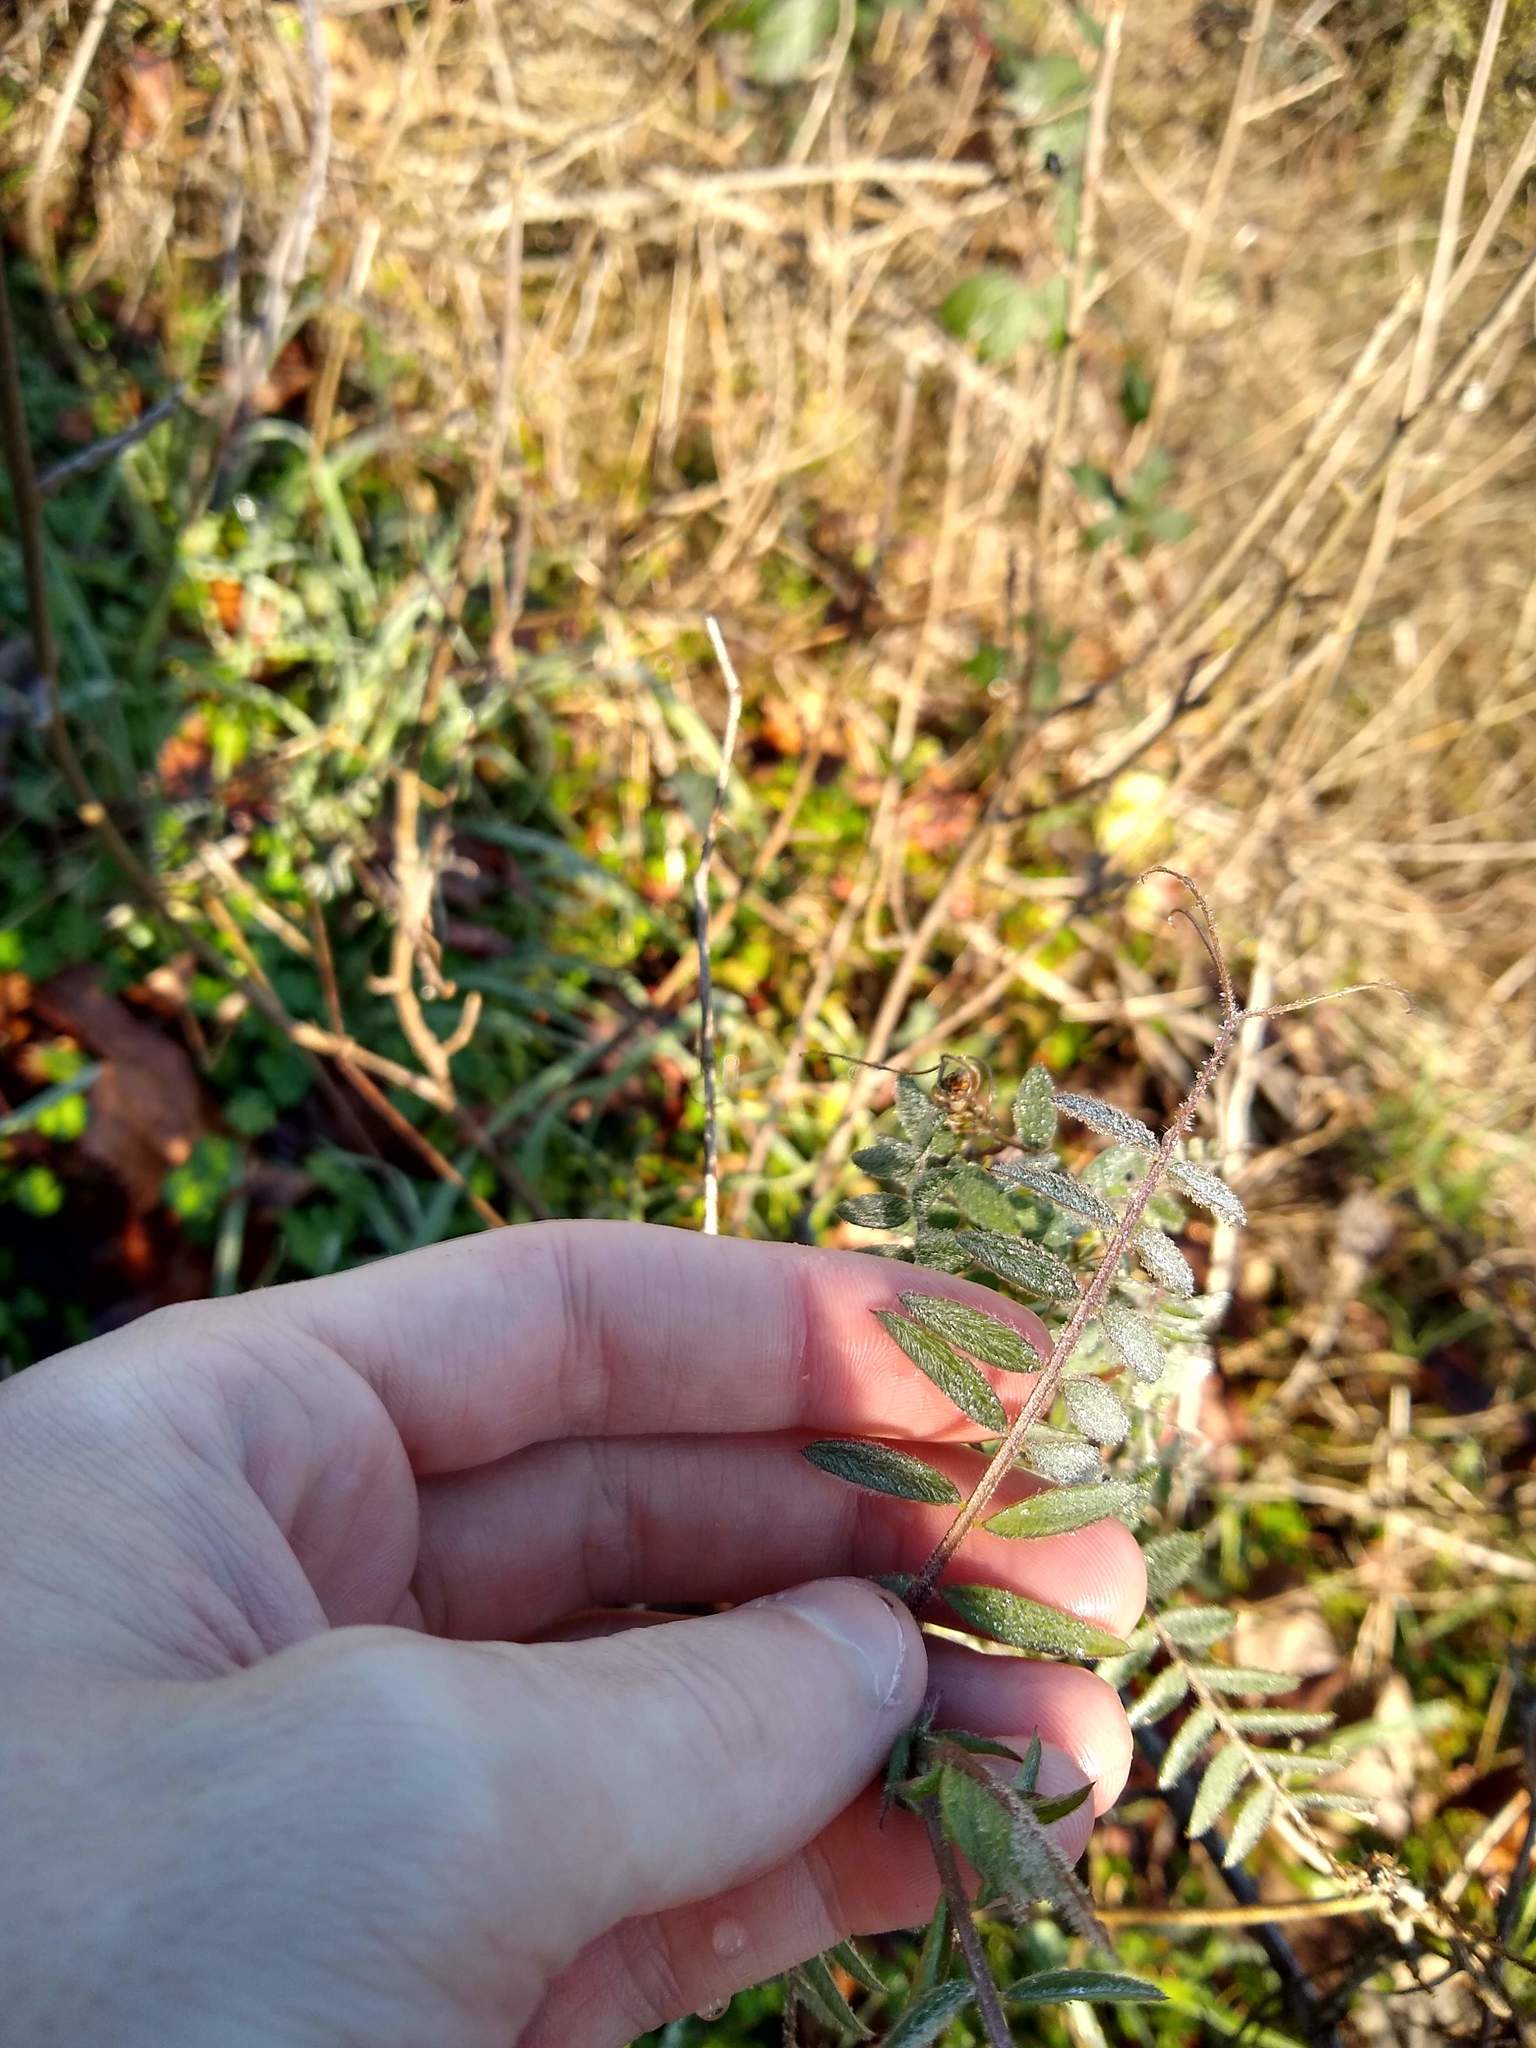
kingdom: Plantae
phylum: Tracheophyta
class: Magnoliopsida
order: Fabales
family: Fabaceae
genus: Vicia
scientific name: Vicia
